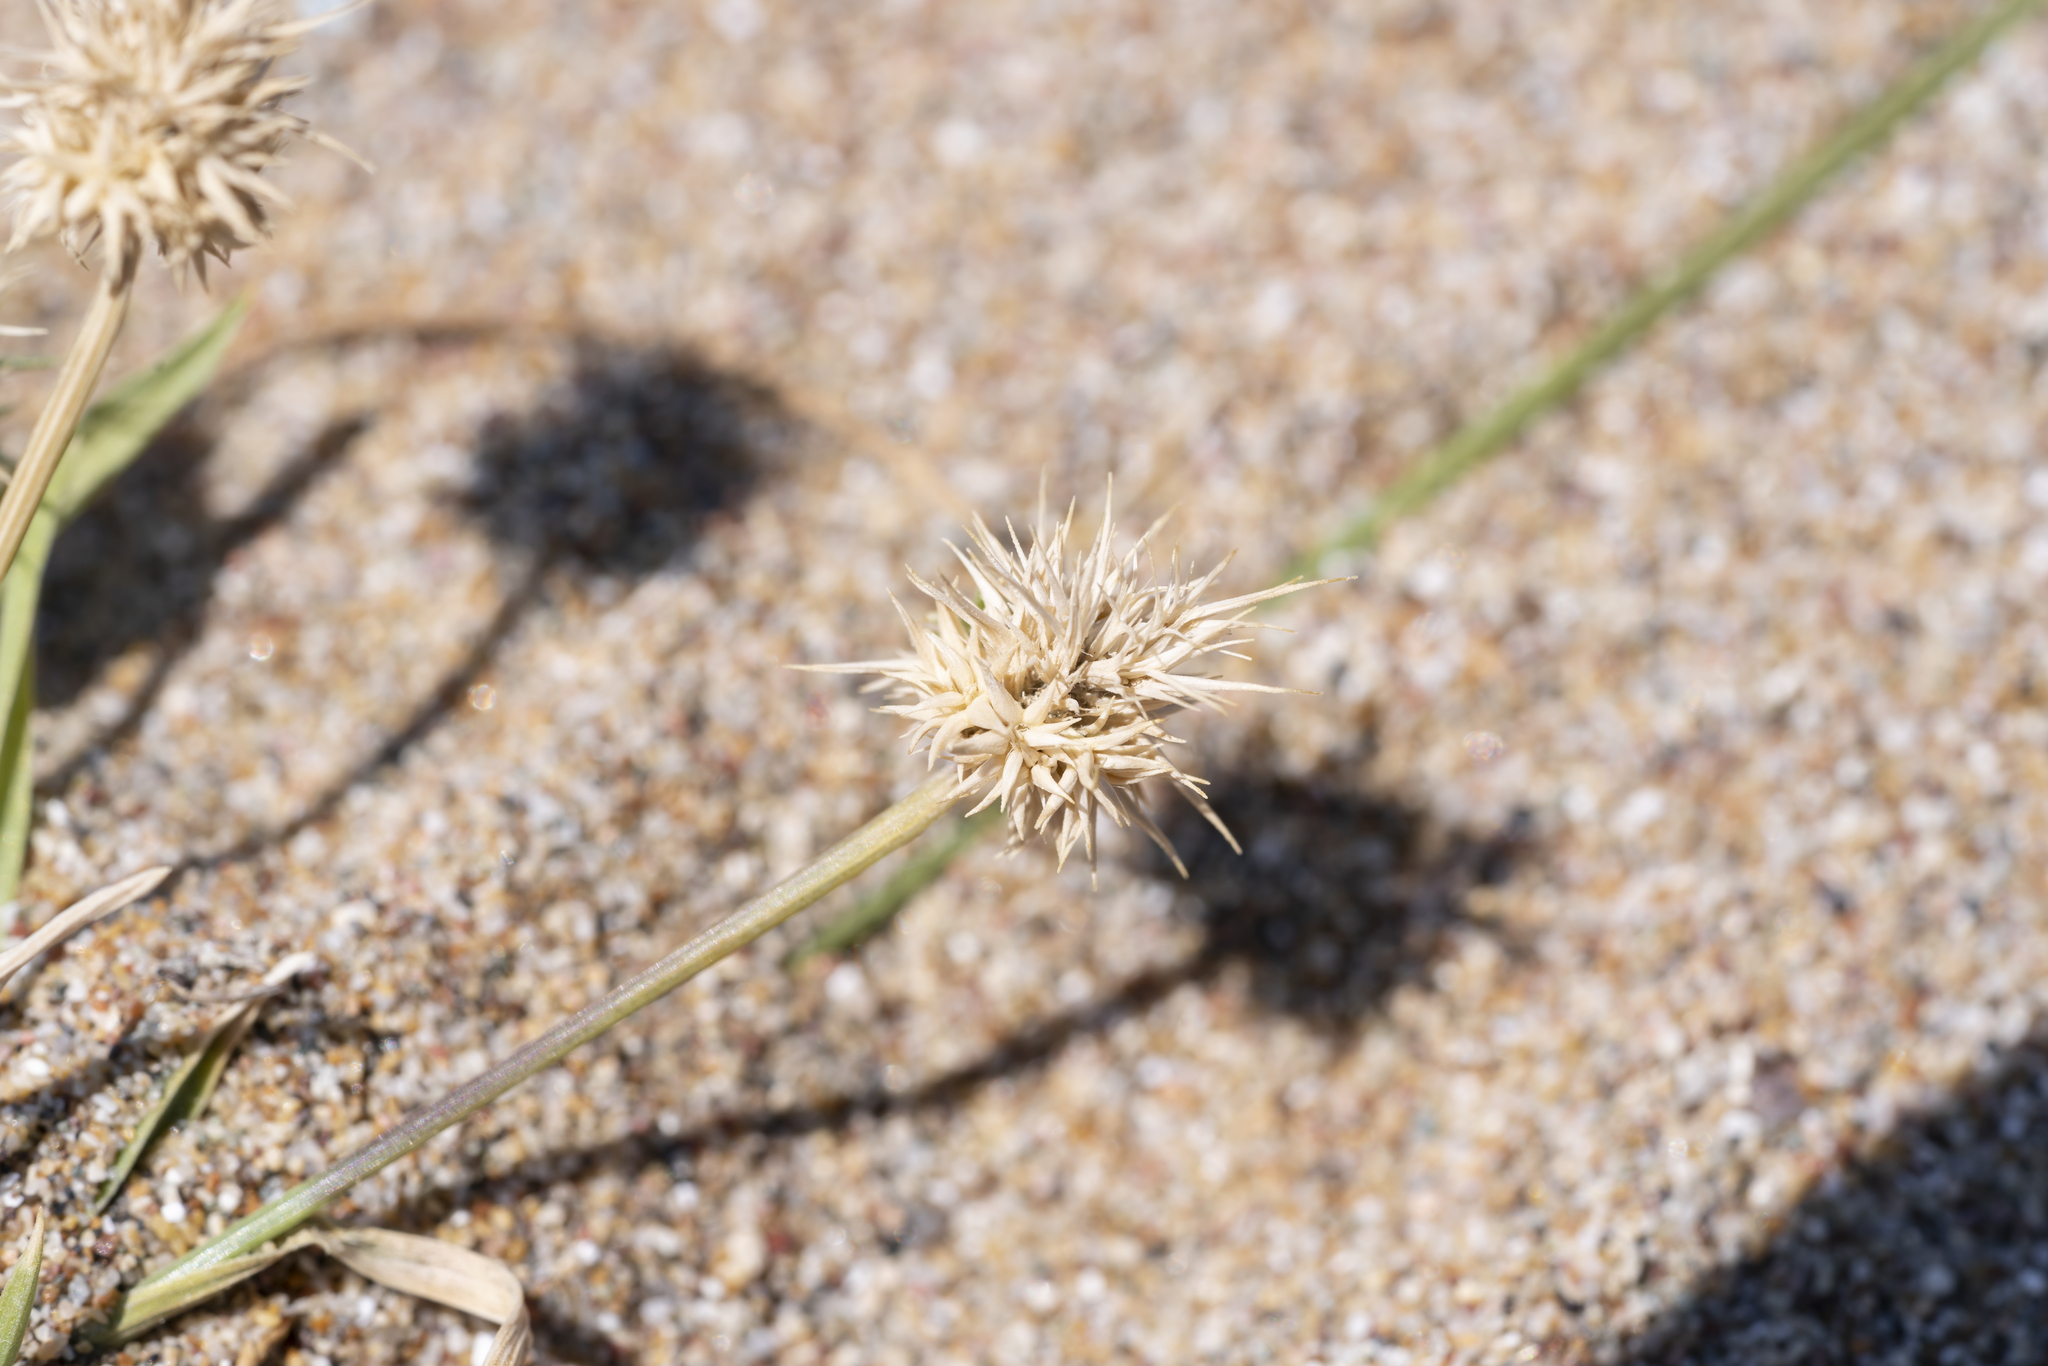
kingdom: Plantae
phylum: Tracheophyta
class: Liliopsida
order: Poales
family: Poaceae
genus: Echinaria
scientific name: Echinaria capitata
